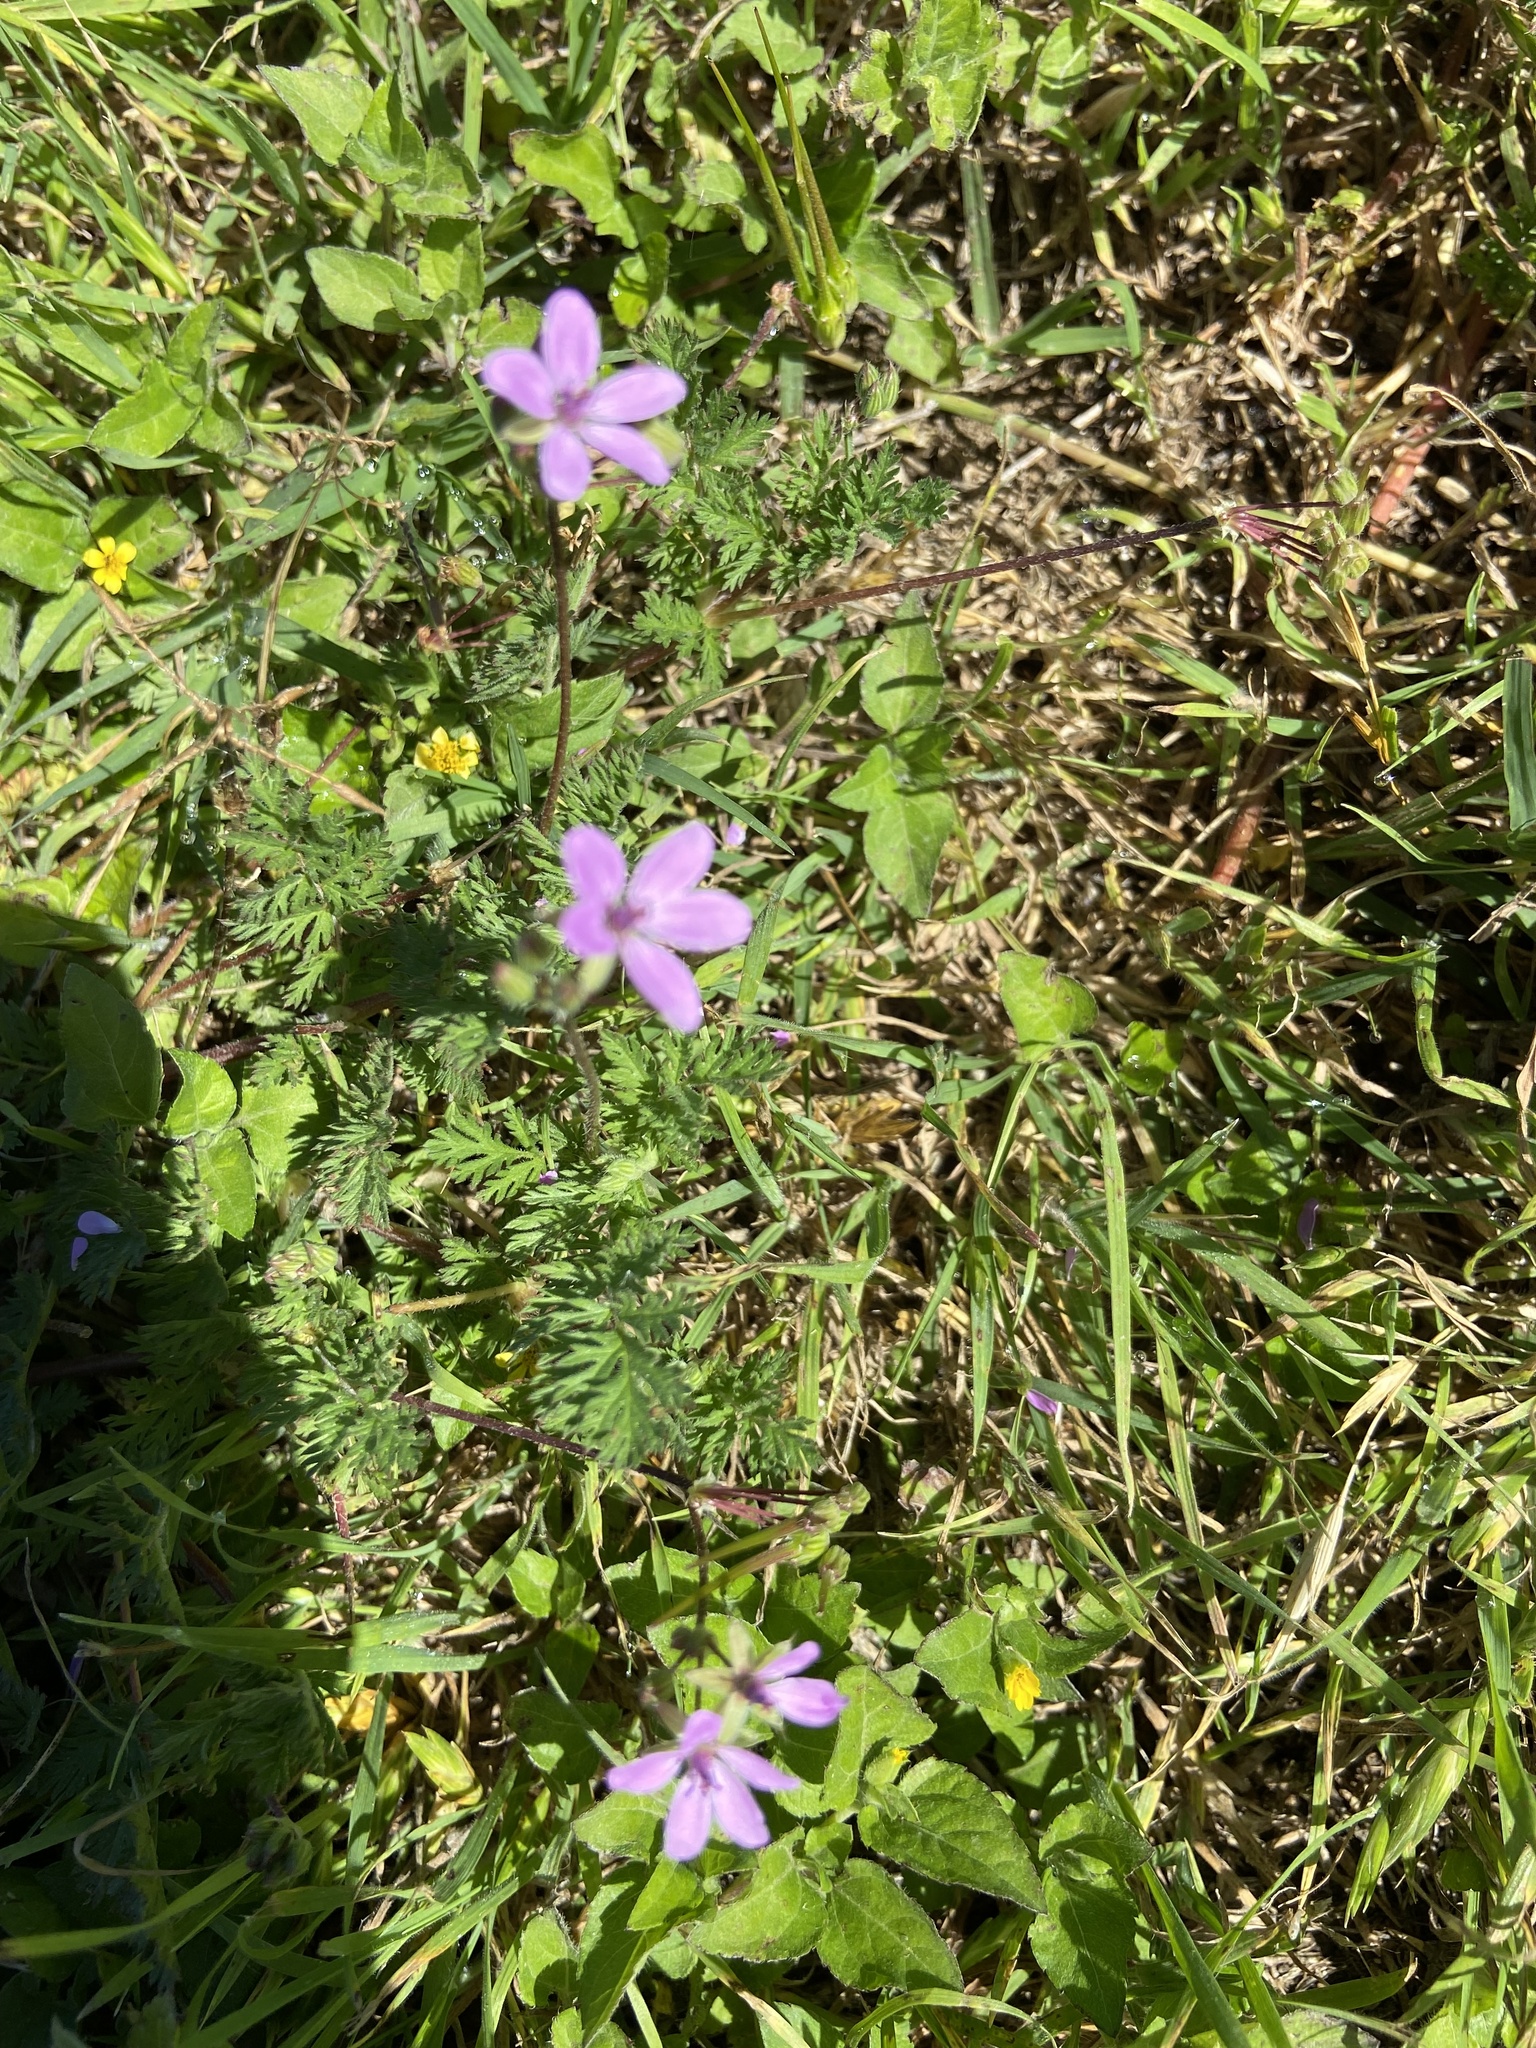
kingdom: Plantae
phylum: Tracheophyta
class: Magnoliopsida
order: Geraniales
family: Geraniaceae
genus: Erodium
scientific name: Erodium cicutarium
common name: Common stork's-bill
